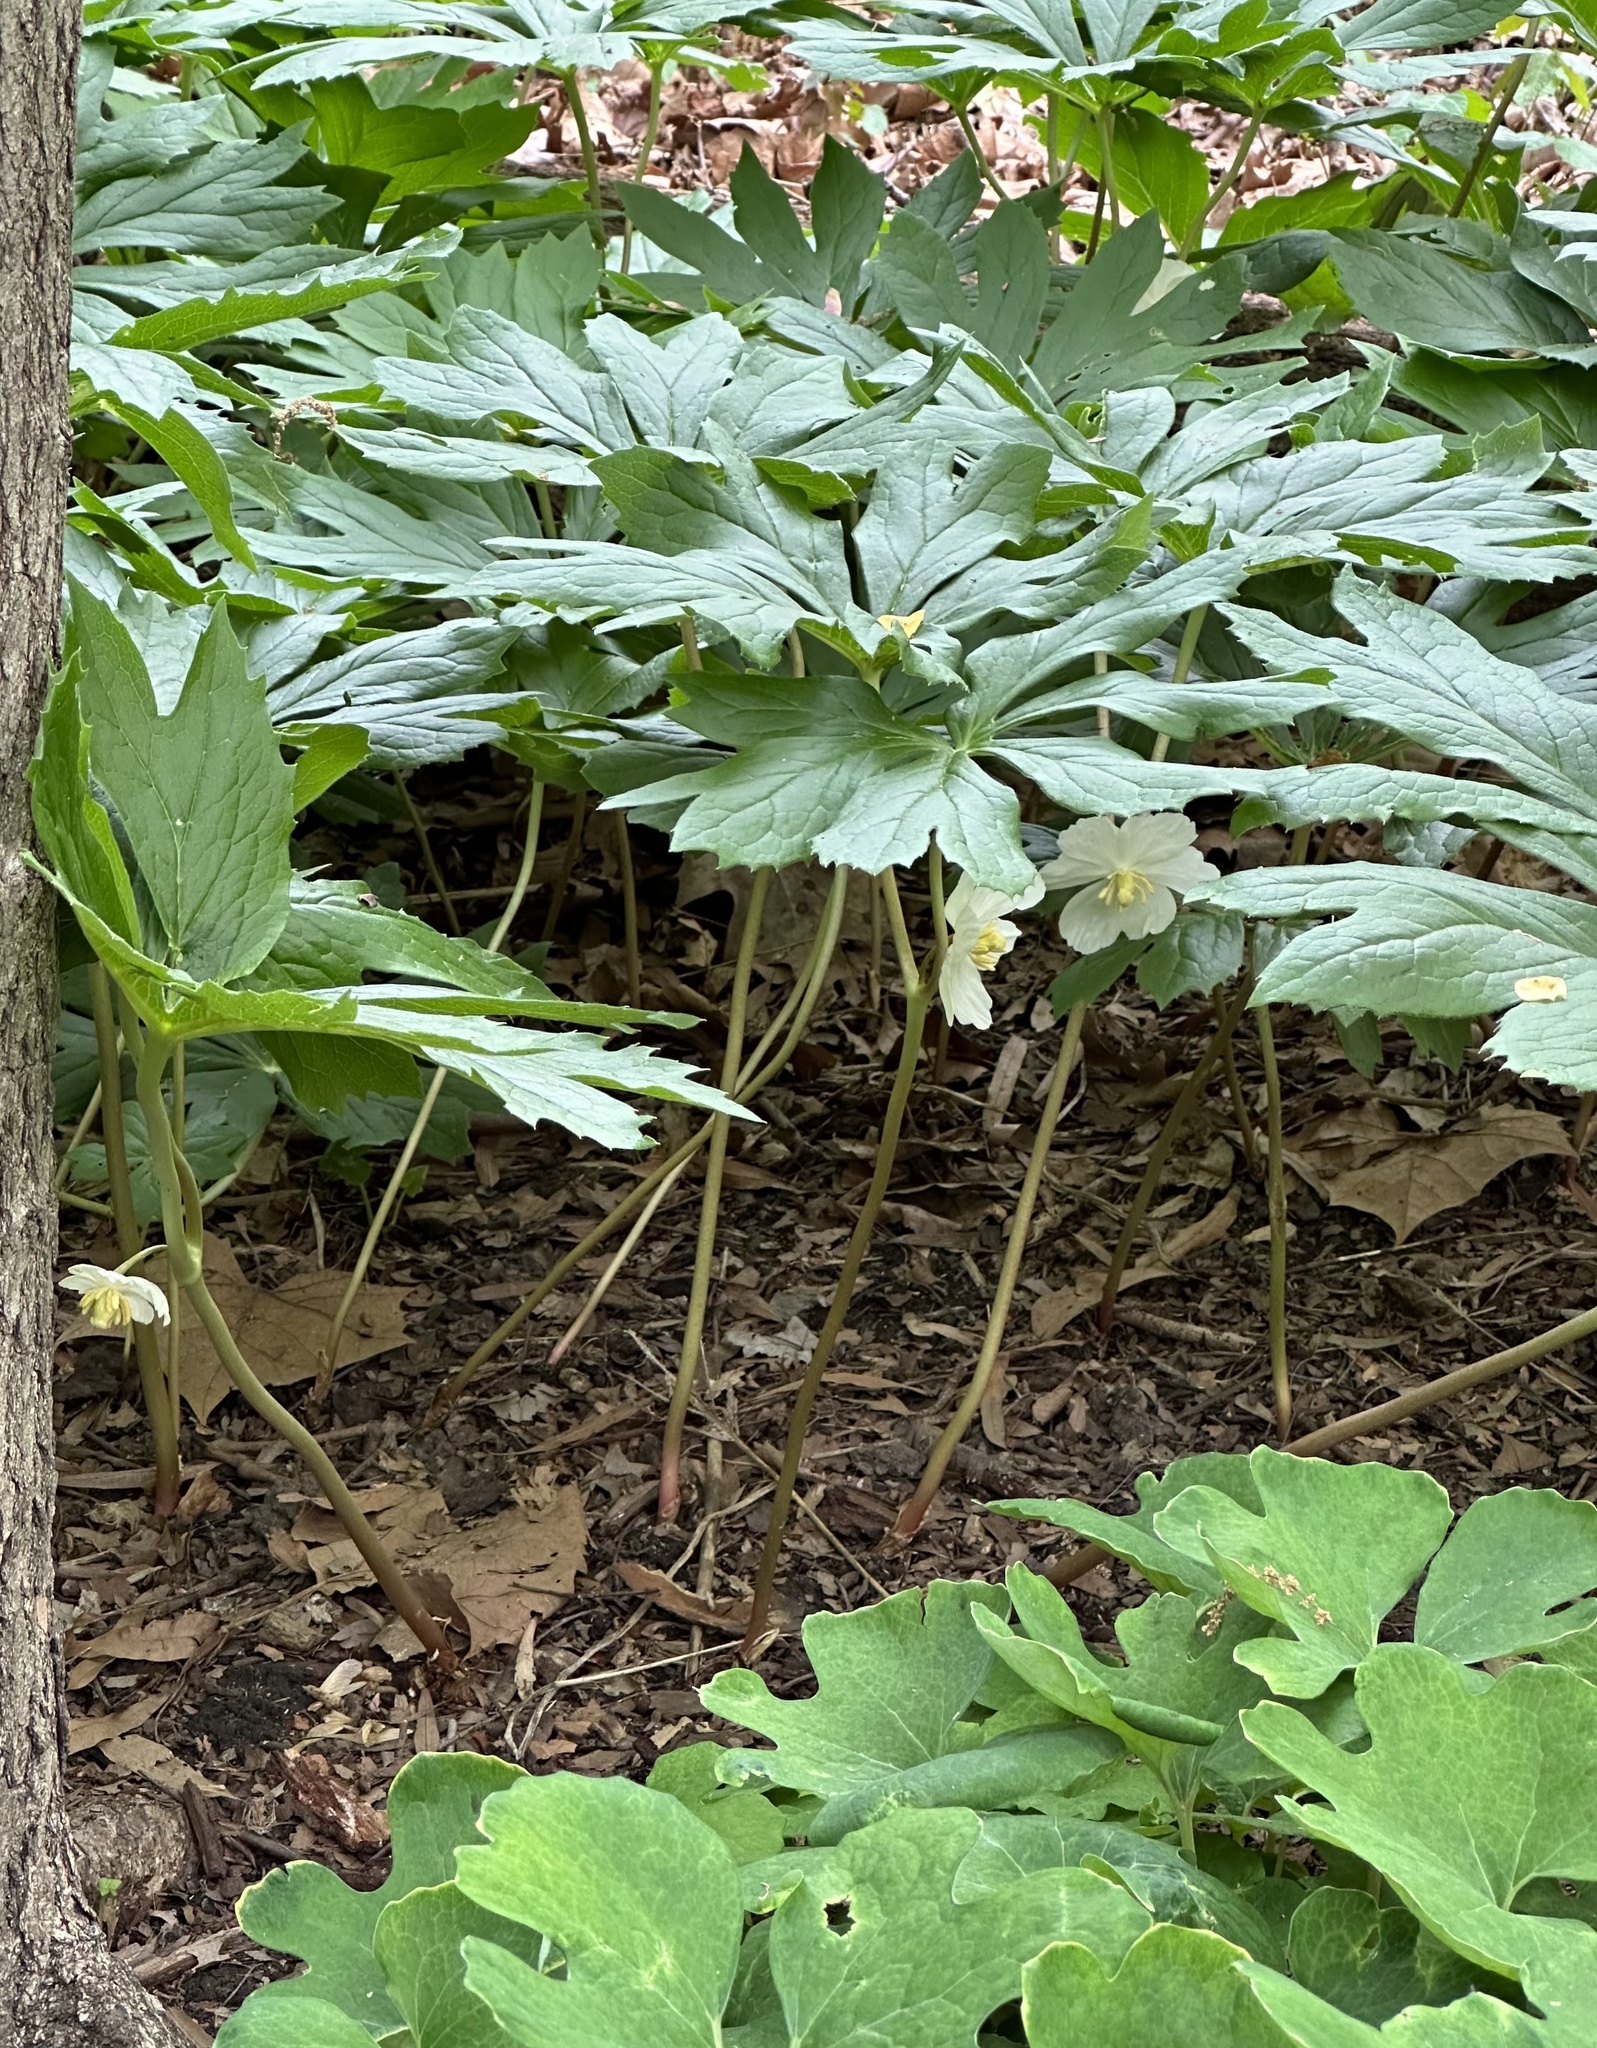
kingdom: Plantae
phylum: Tracheophyta
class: Magnoliopsida
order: Ranunculales
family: Berberidaceae
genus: Podophyllum
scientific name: Podophyllum peltatum
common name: Wild mandrake
